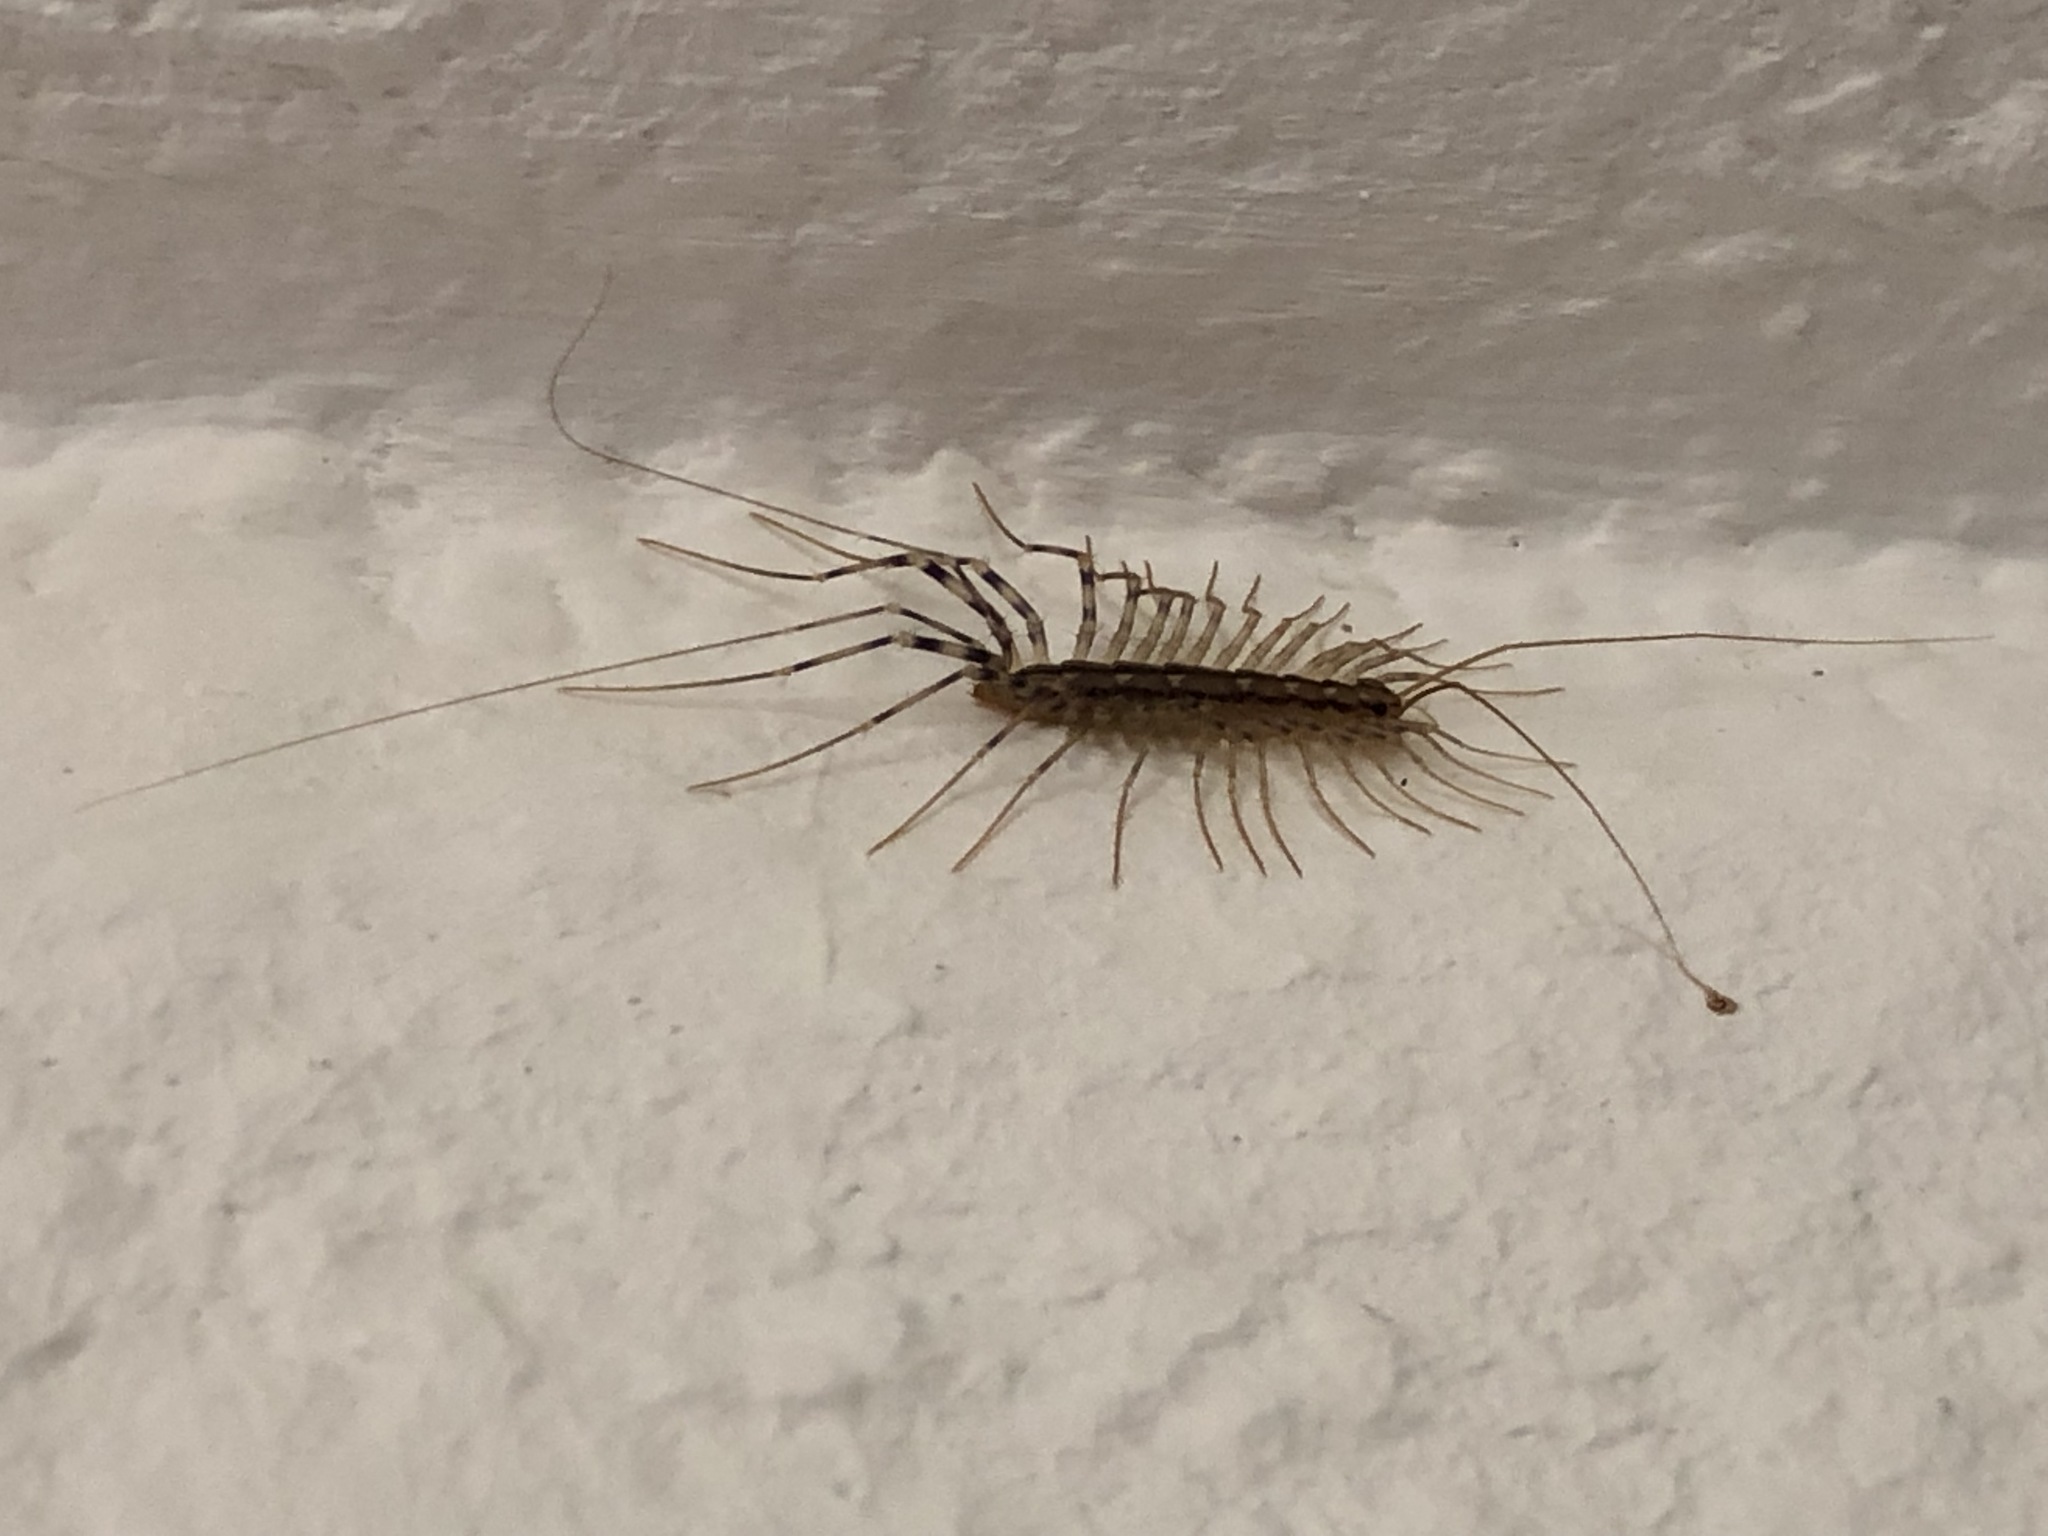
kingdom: Animalia
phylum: Arthropoda
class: Chilopoda
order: Scutigeromorpha
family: Scutigeridae
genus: Scutigera
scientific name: Scutigera coleoptrata
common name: House centipede
